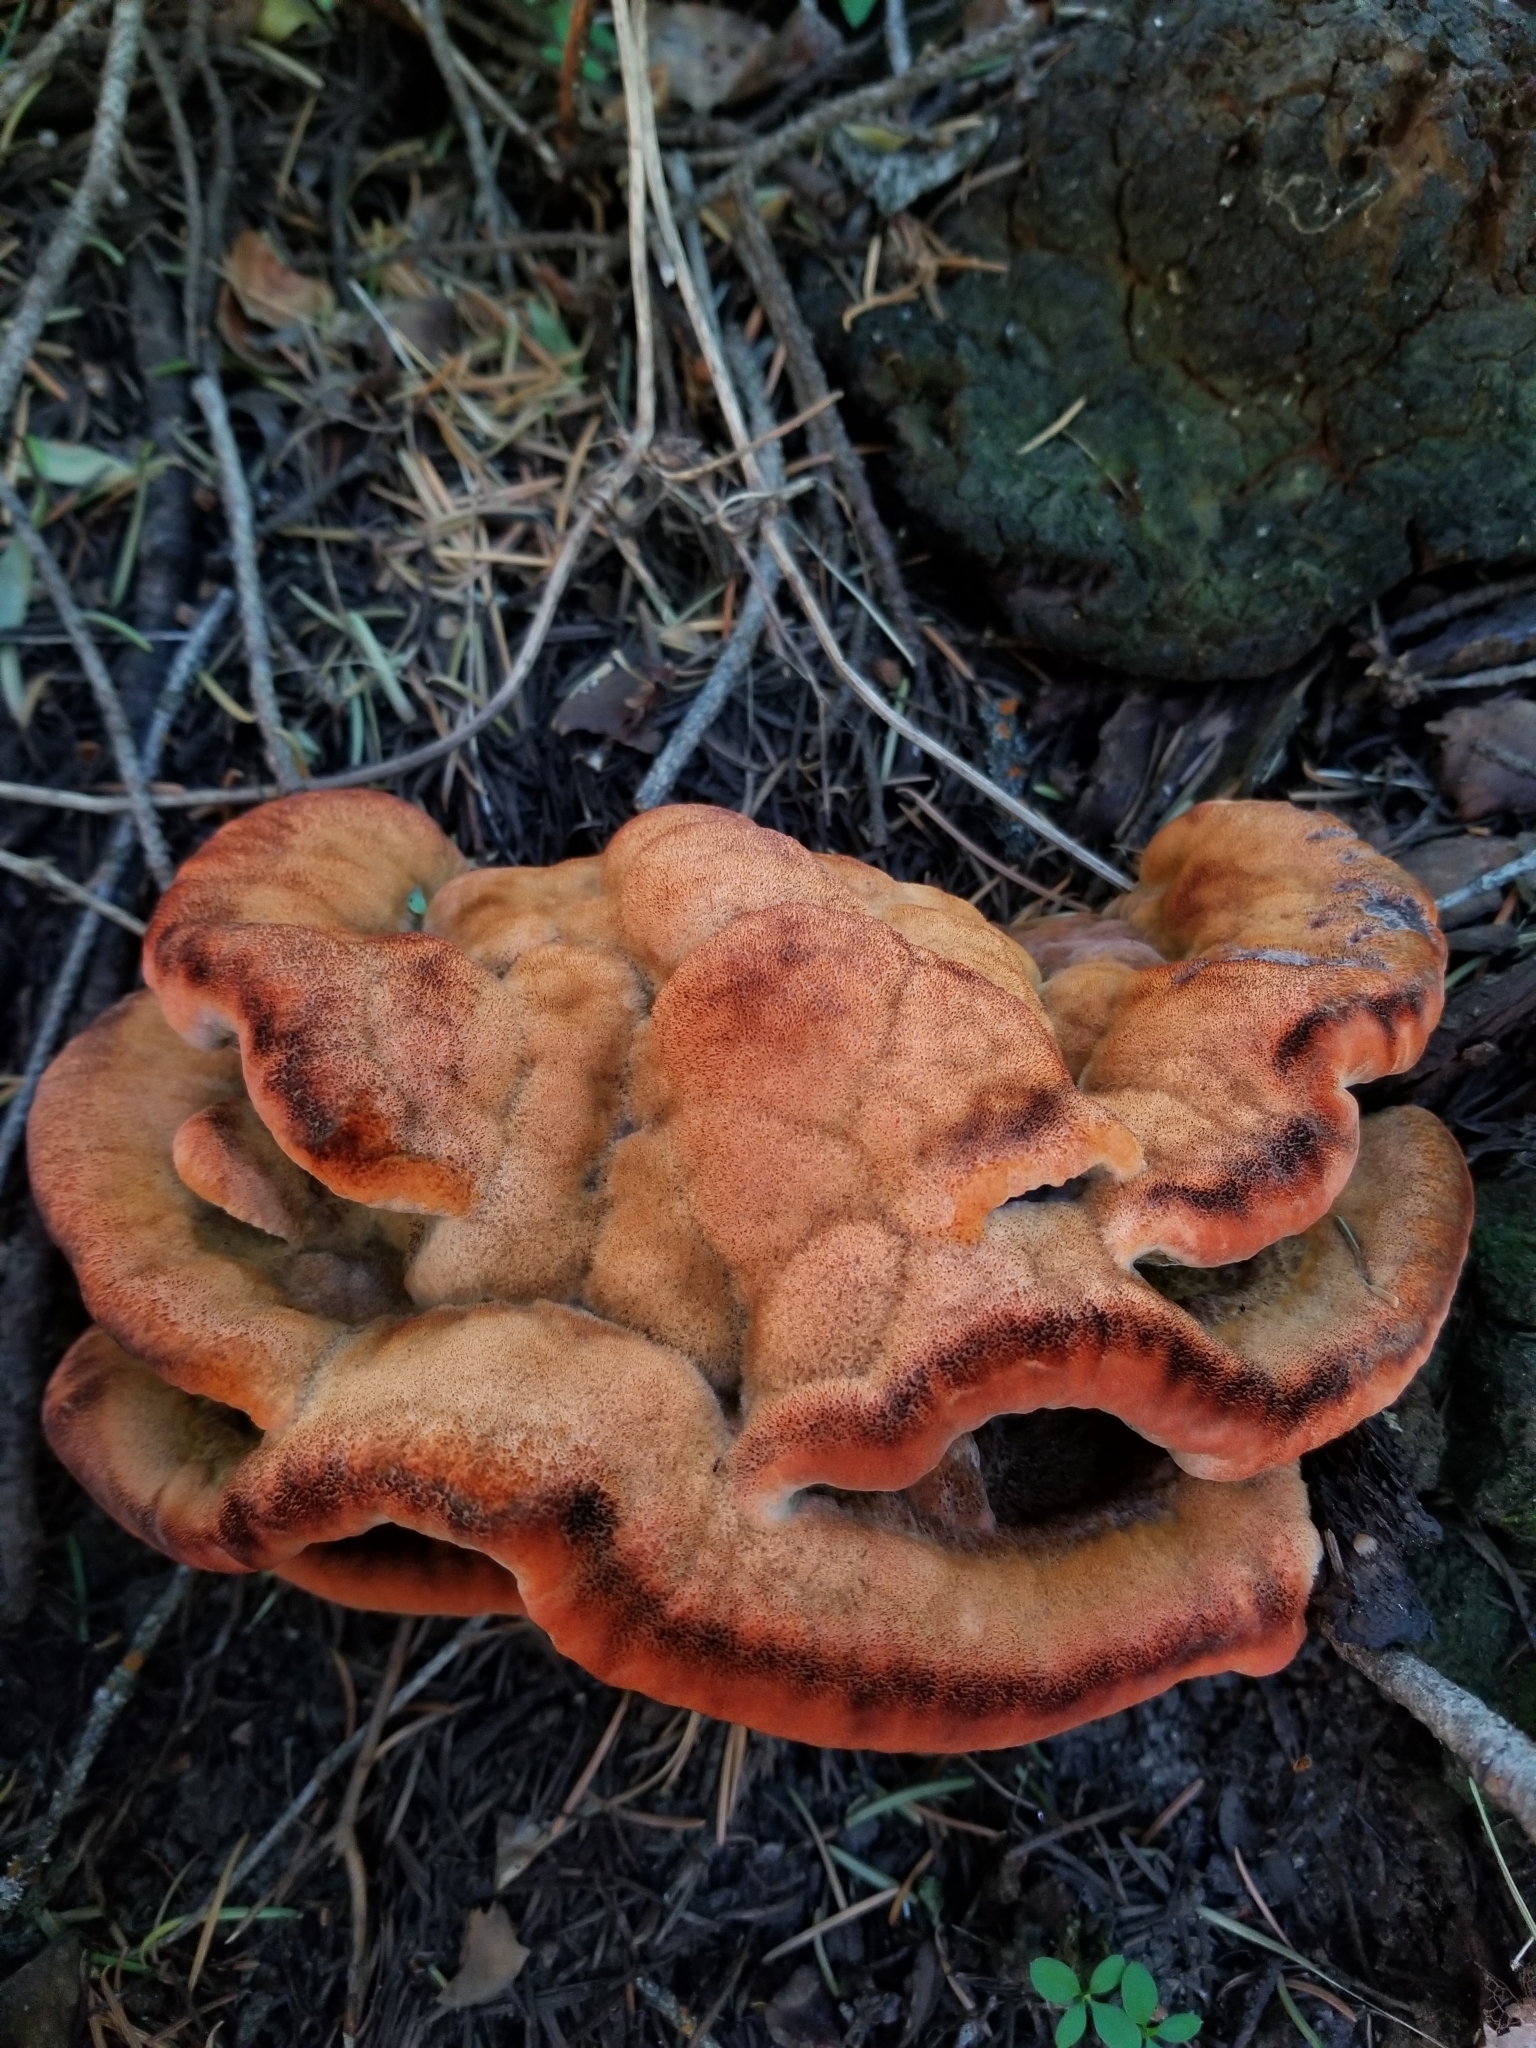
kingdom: Fungi
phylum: Basidiomycota
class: Agaricomycetes
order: Polyporales
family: Laetiporaceae
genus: Phaeolus
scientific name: Phaeolus schweinitzii
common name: Dyer's mazegill
